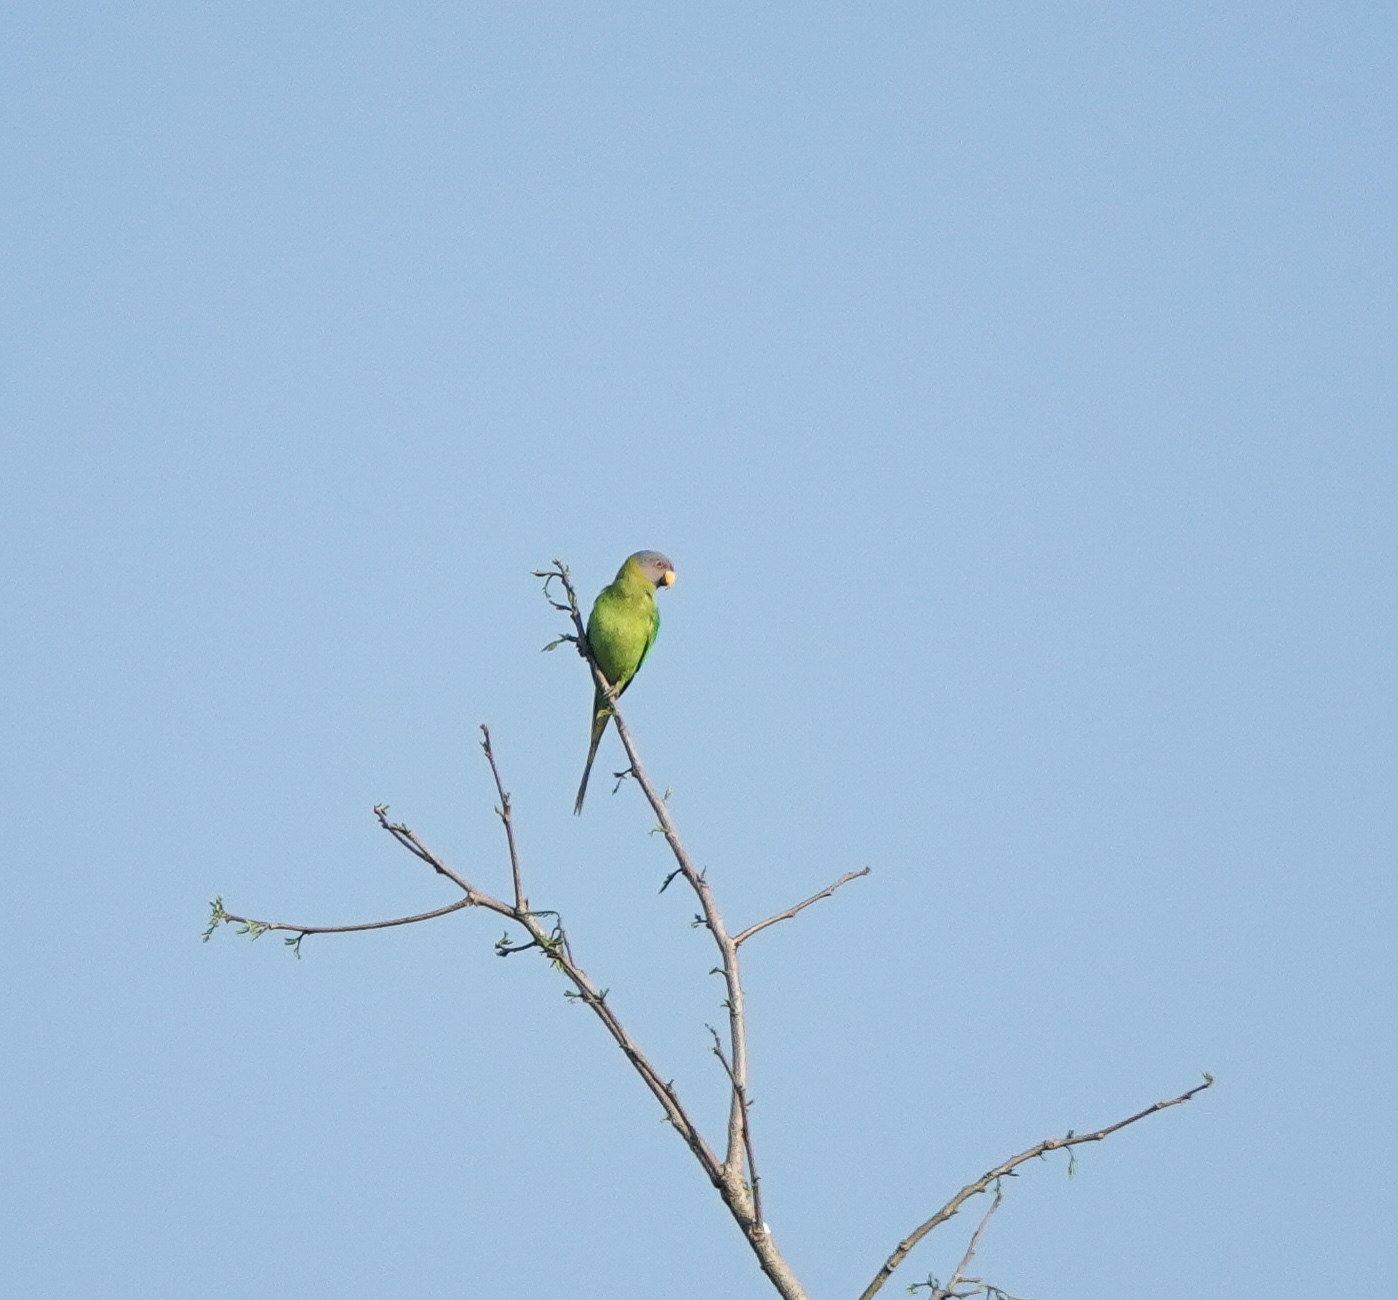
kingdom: Animalia
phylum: Chordata
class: Aves
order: Psittaciformes
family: Psittacidae
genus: Psittacula
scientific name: Psittacula roseata
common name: Blossom-headed parakeet
